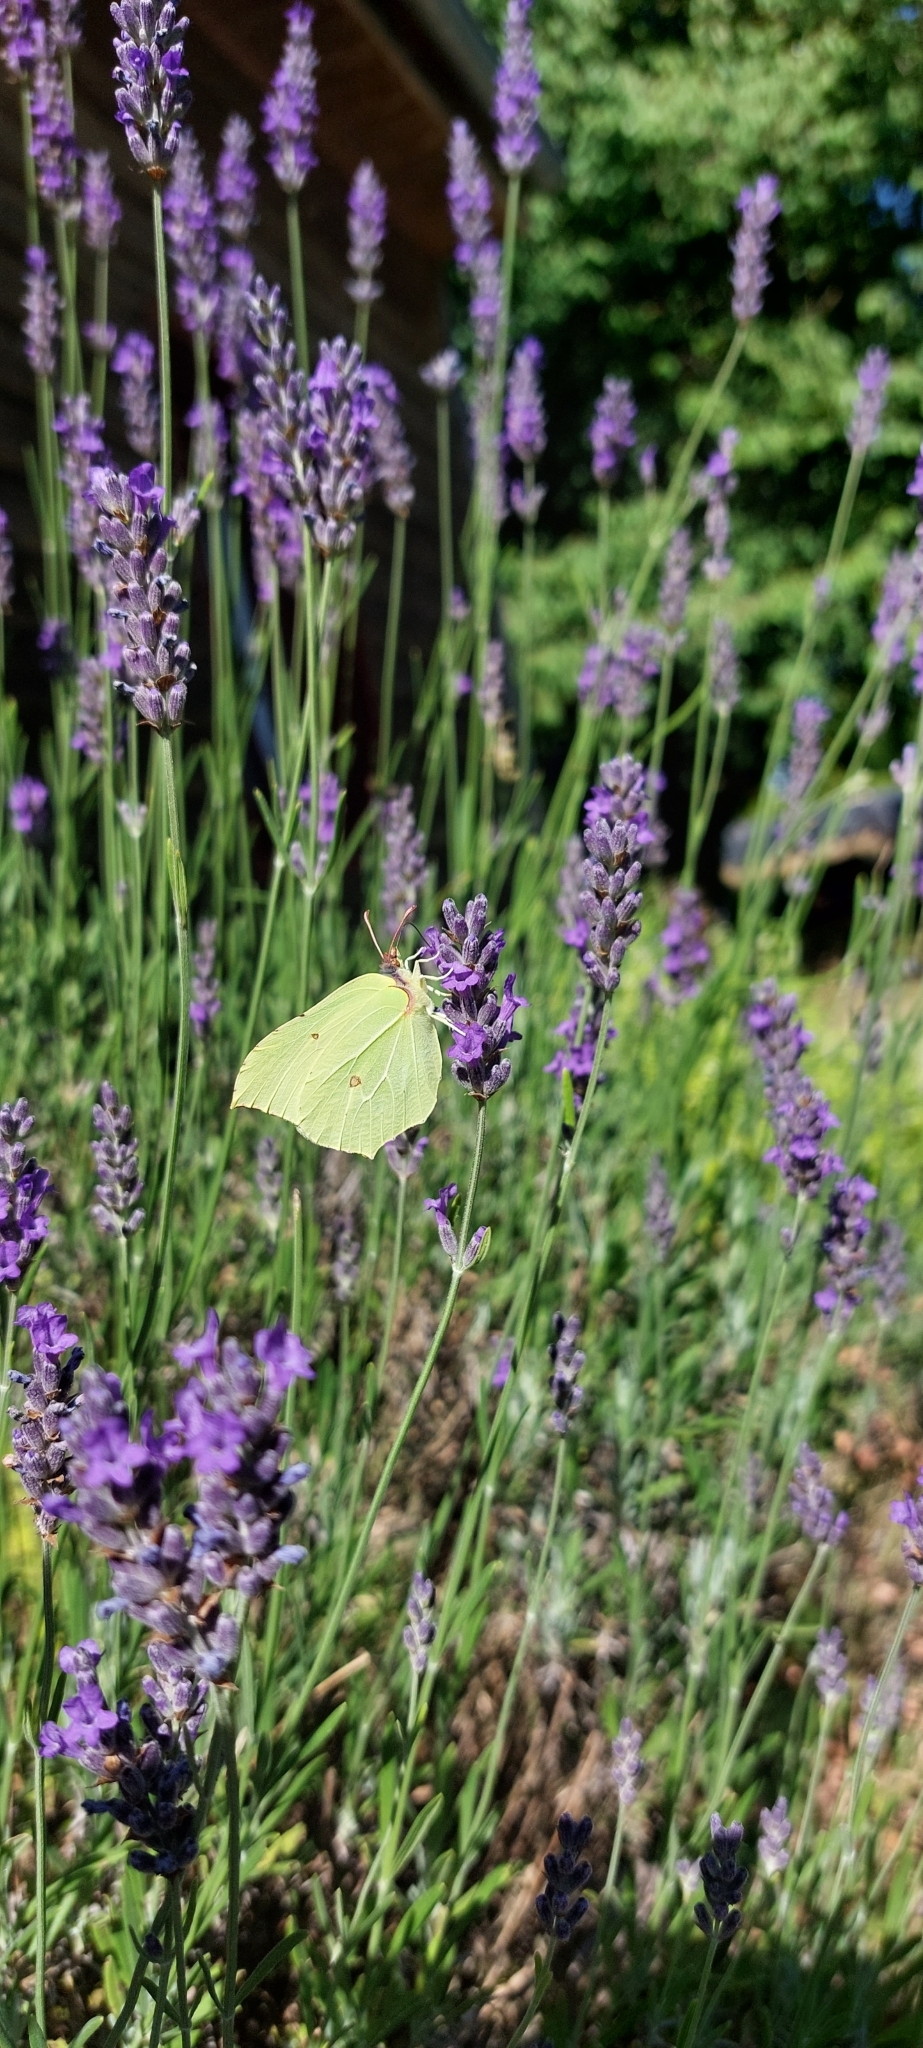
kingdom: Animalia
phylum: Arthropoda
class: Insecta
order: Lepidoptera
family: Pieridae
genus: Gonepteryx
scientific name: Gonepteryx rhamni
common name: Brimstone
